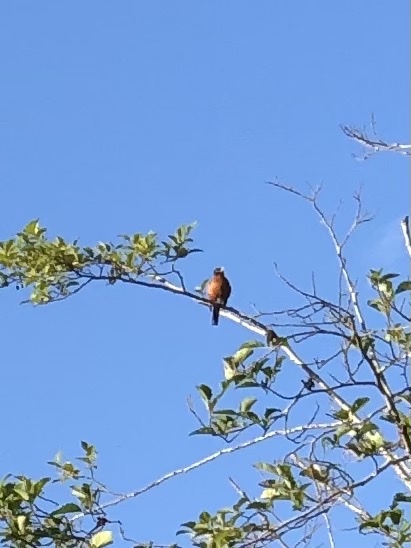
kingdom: Animalia
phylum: Chordata
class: Aves
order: Passeriformes
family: Turdidae
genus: Turdus
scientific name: Turdus migratorius
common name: American robin
